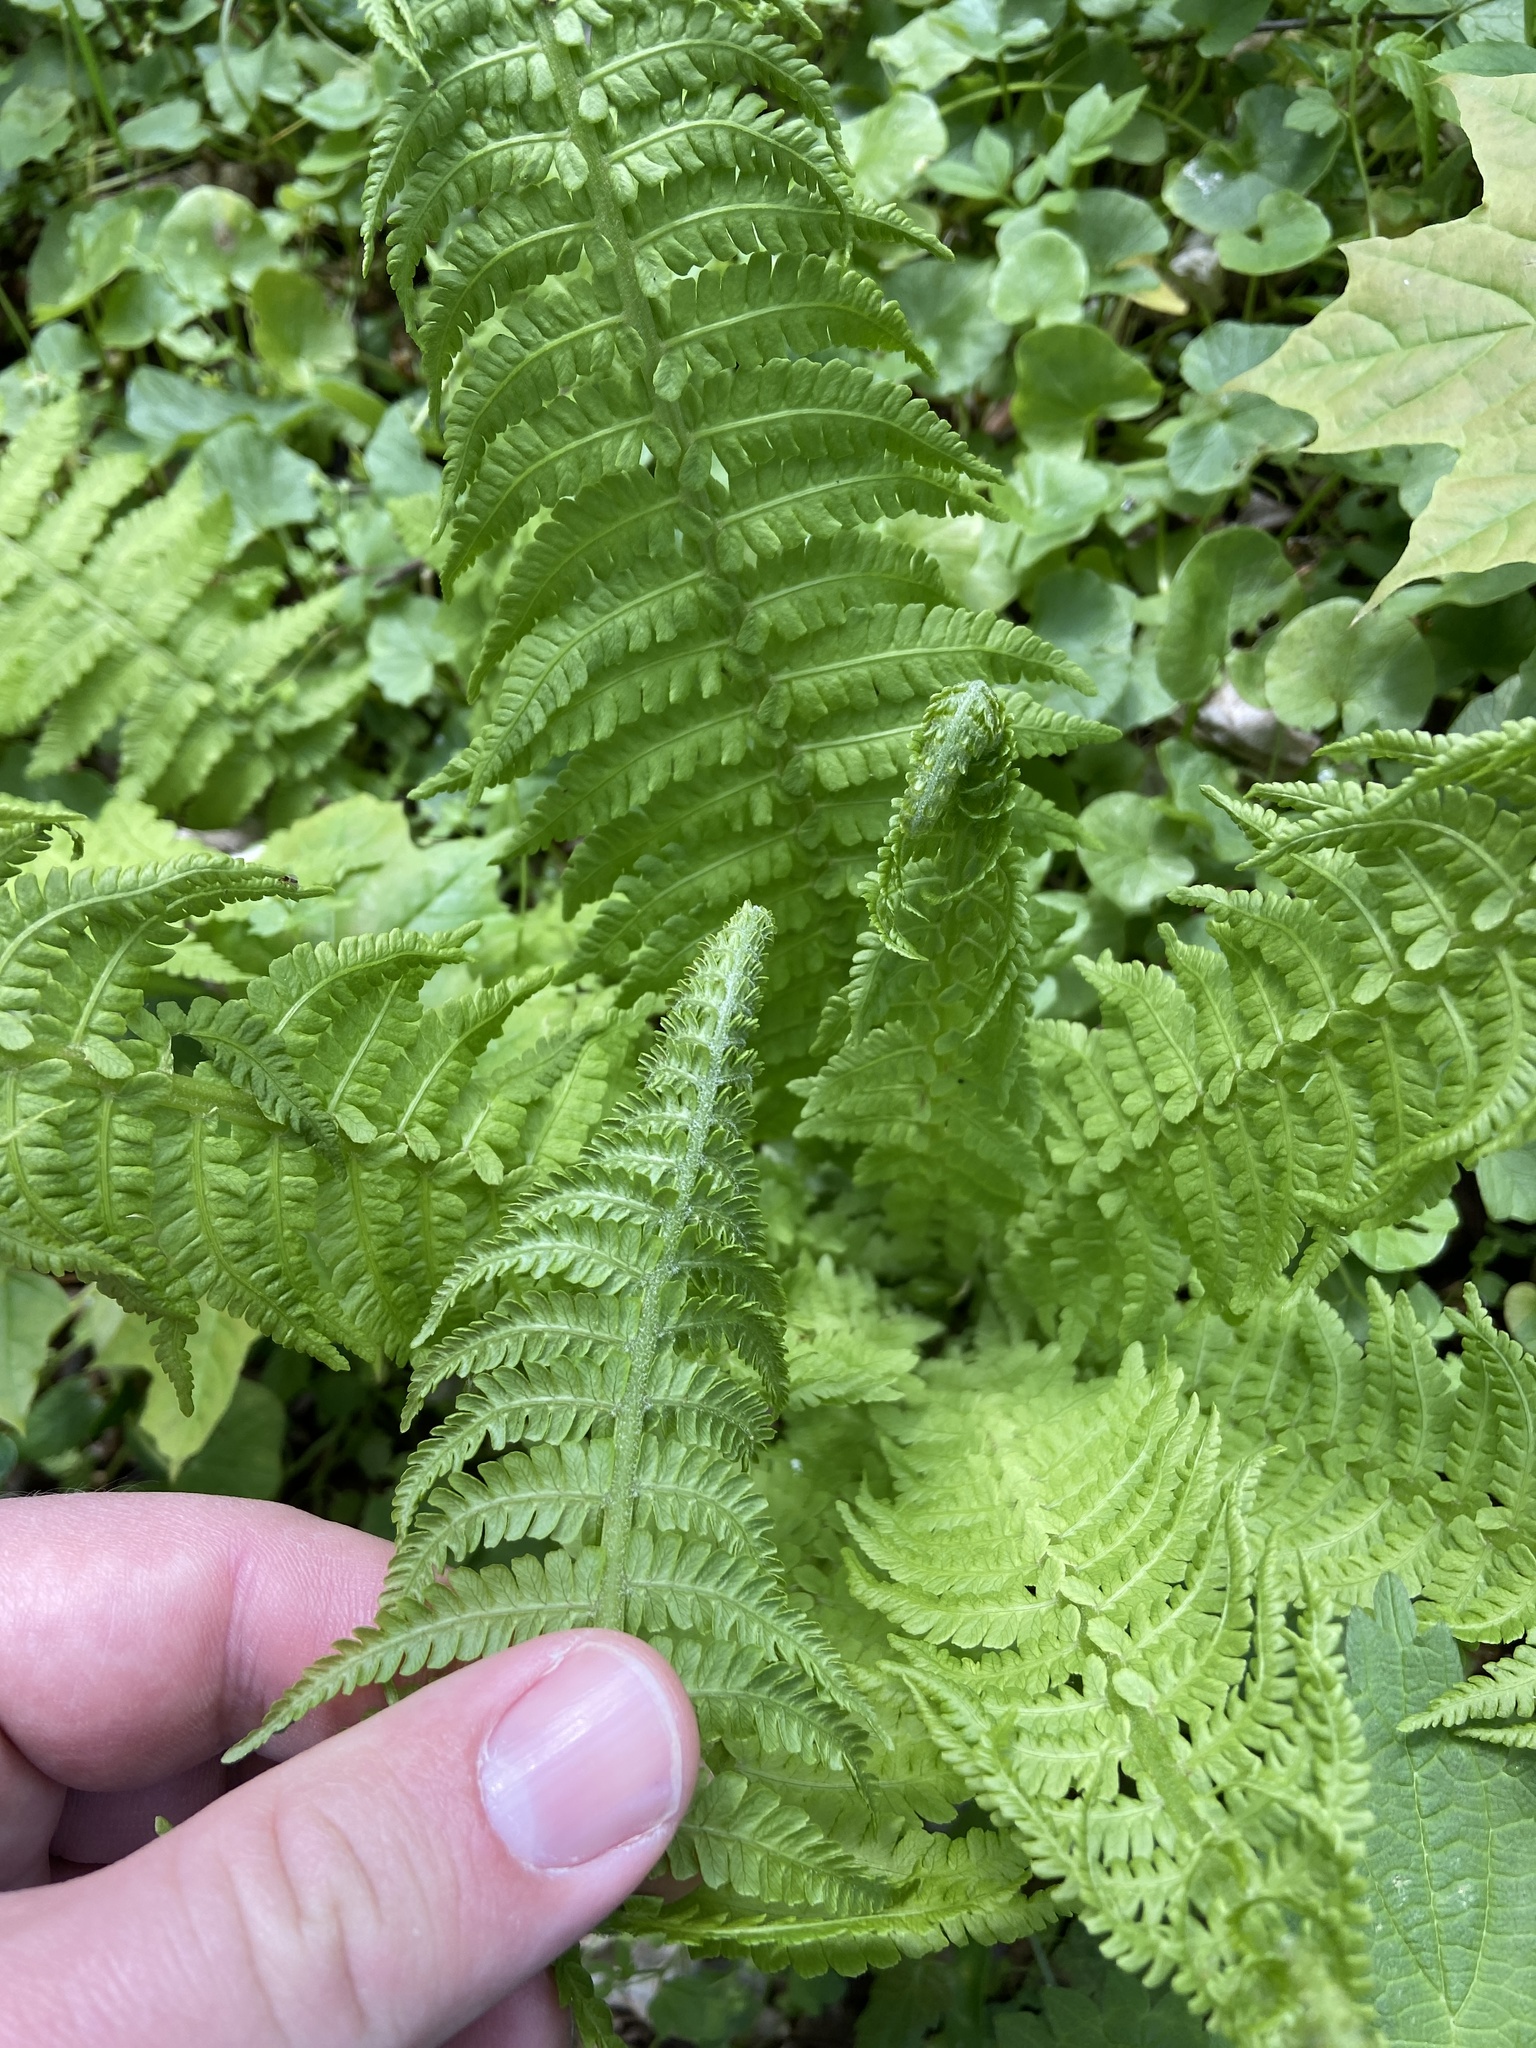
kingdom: Plantae
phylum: Tracheophyta
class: Polypodiopsida
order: Polypodiales
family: Onocleaceae
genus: Matteuccia
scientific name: Matteuccia struthiopteris
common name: Ostrich fern
